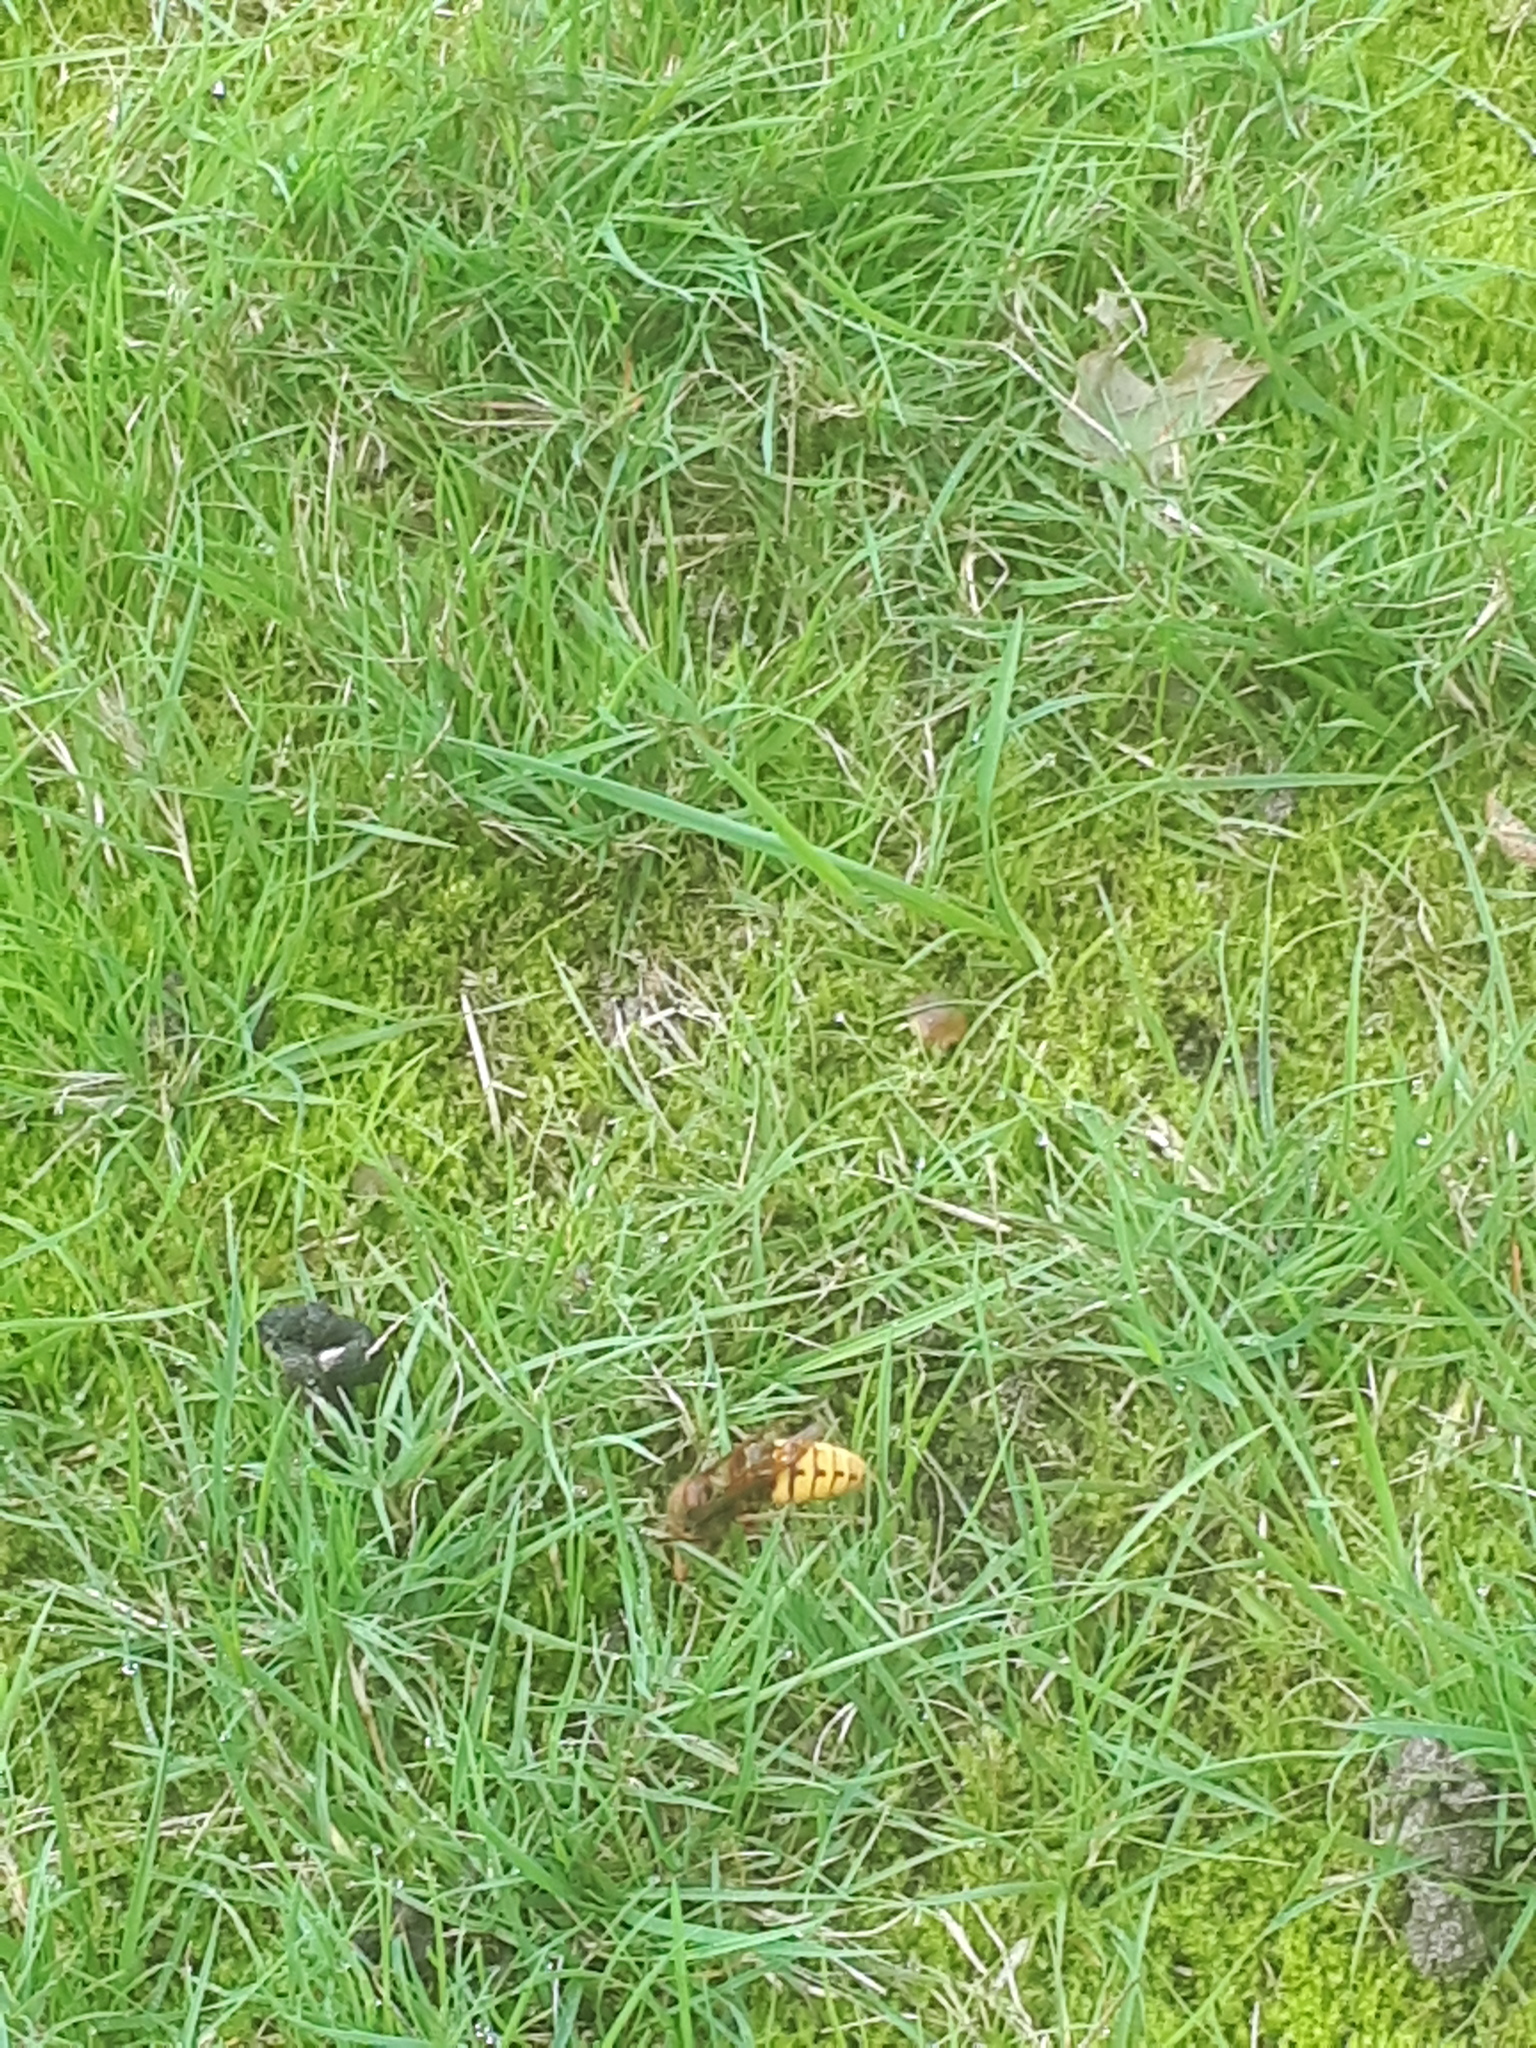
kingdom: Animalia
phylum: Arthropoda
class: Insecta
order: Hymenoptera
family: Vespidae
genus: Vespa
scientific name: Vespa crabro
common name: Hornet
